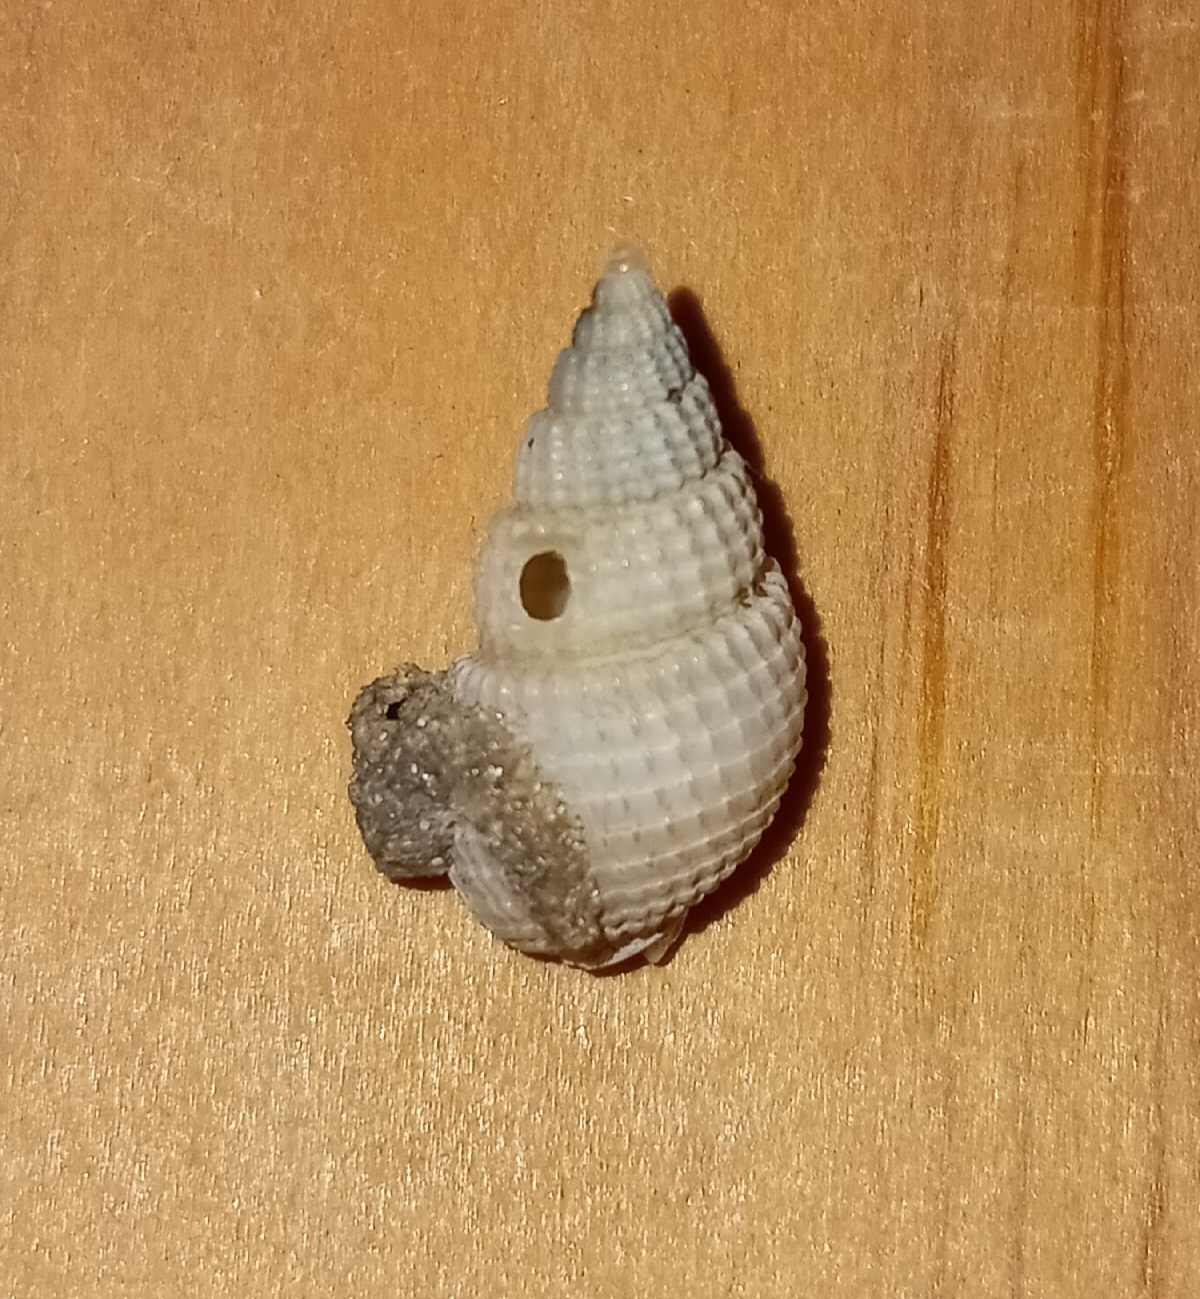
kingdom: Animalia
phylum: Mollusca
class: Gastropoda
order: Neogastropoda
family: Nassariidae
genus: Ilyanassa
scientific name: Ilyanassa trivittata
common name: Three-line mudsnail
